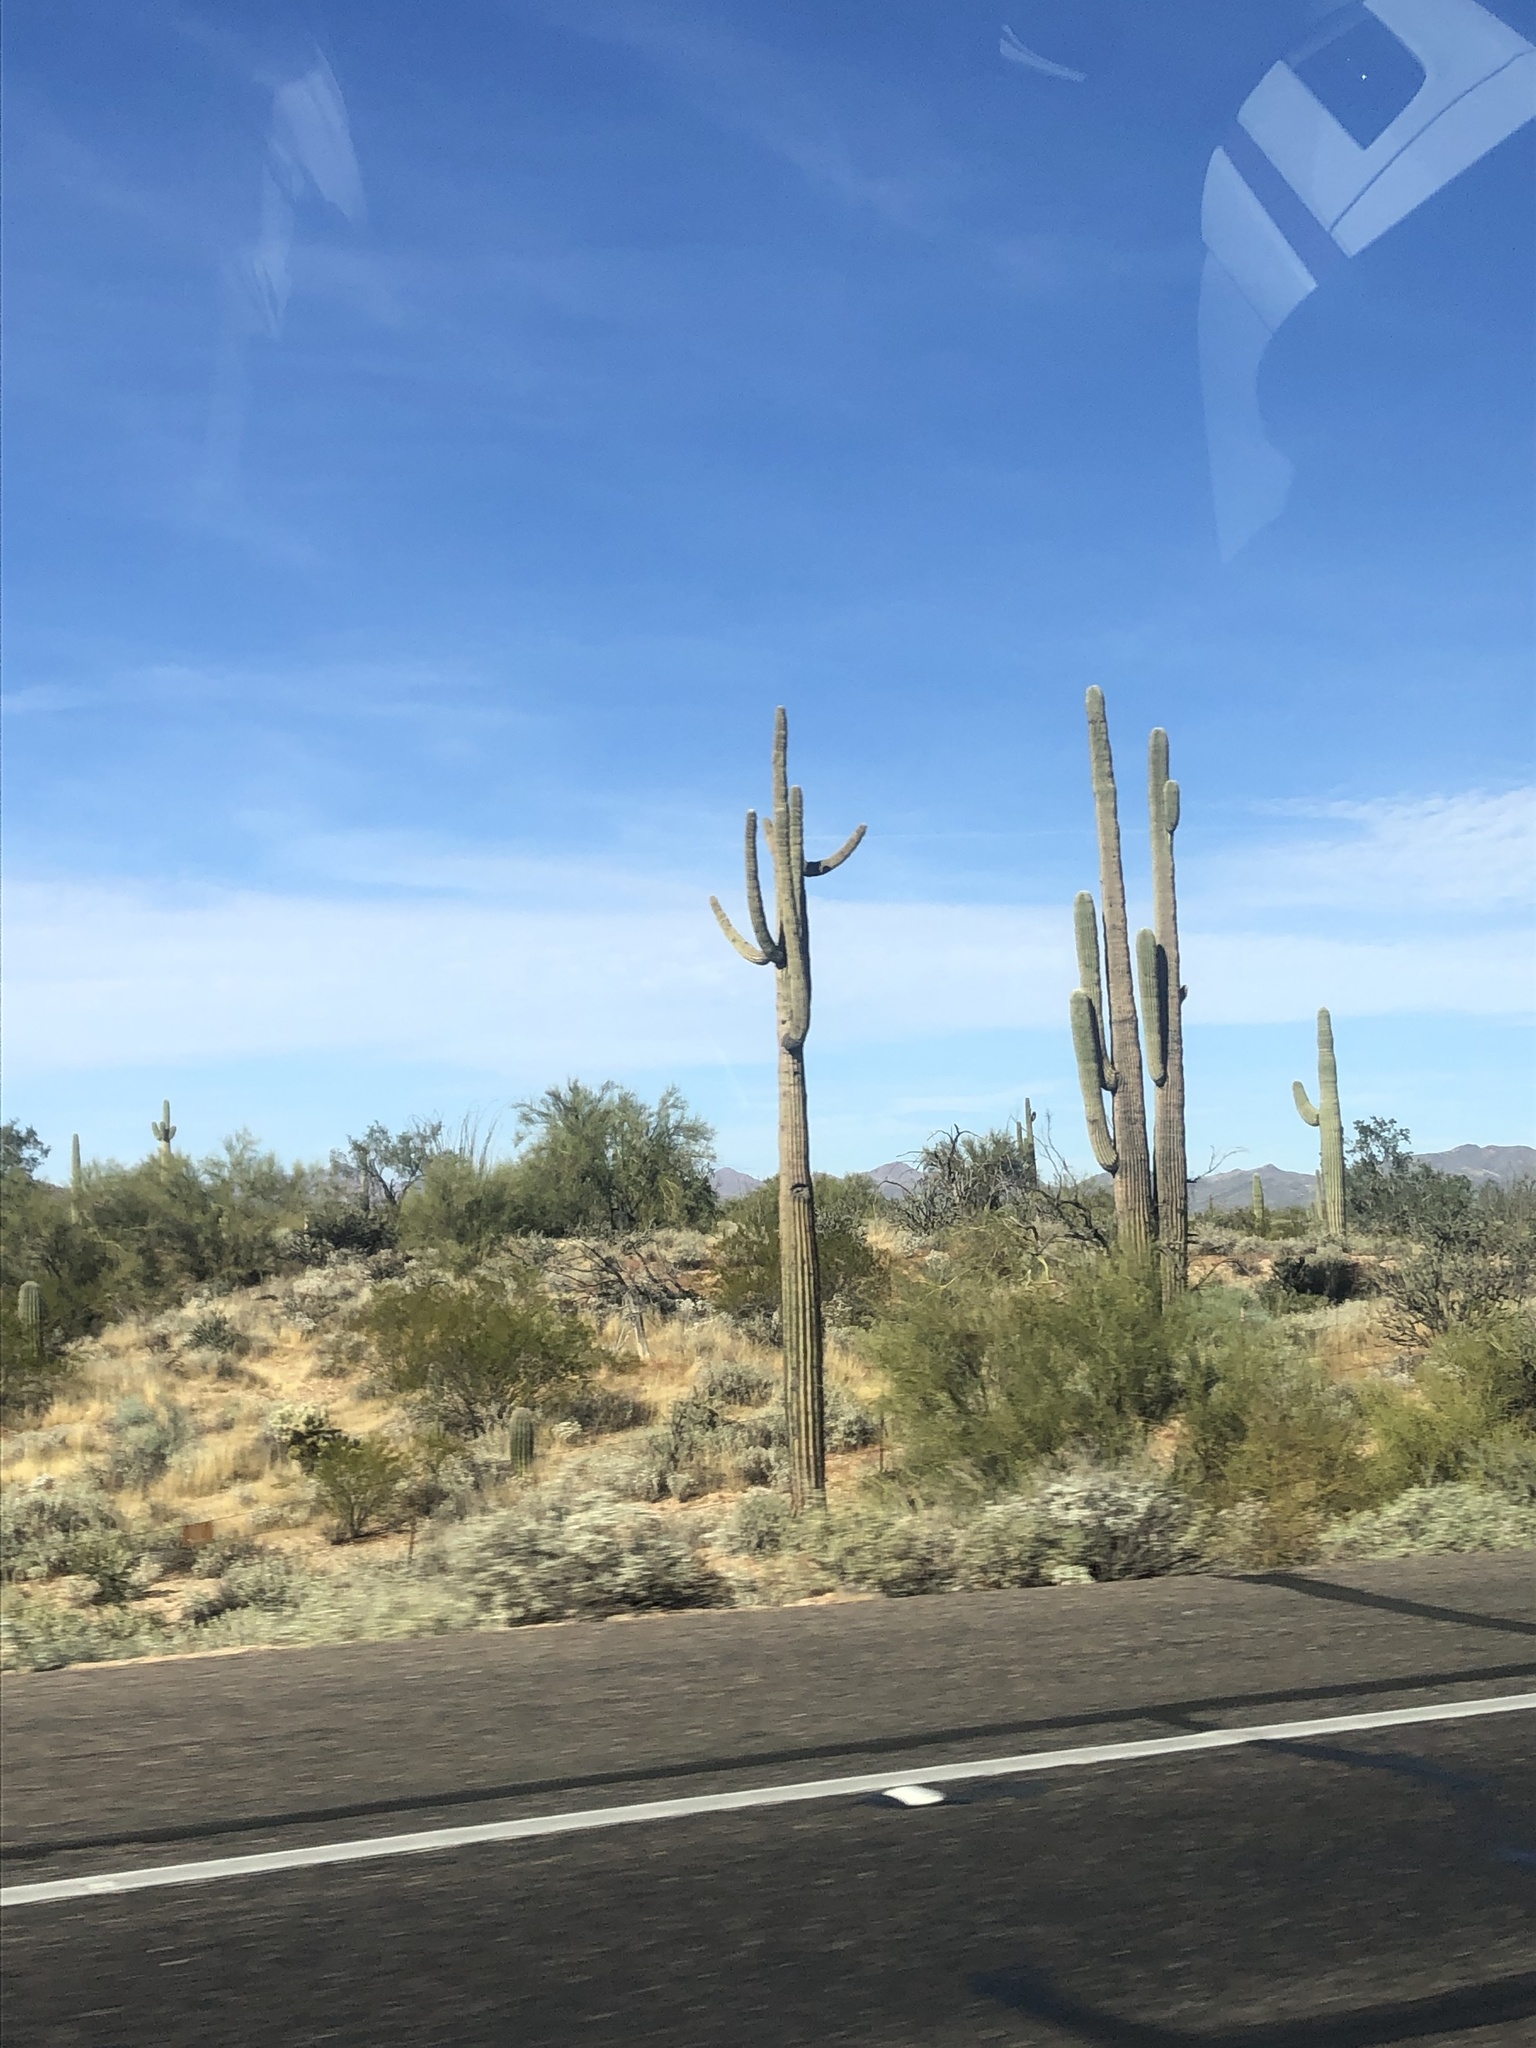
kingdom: Plantae
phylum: Tracheophyta
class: Magnoliopsida
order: Caryophyllales
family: Cactaceae
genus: Carnegiea
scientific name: Carnegiea gigantea
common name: Saguaro
